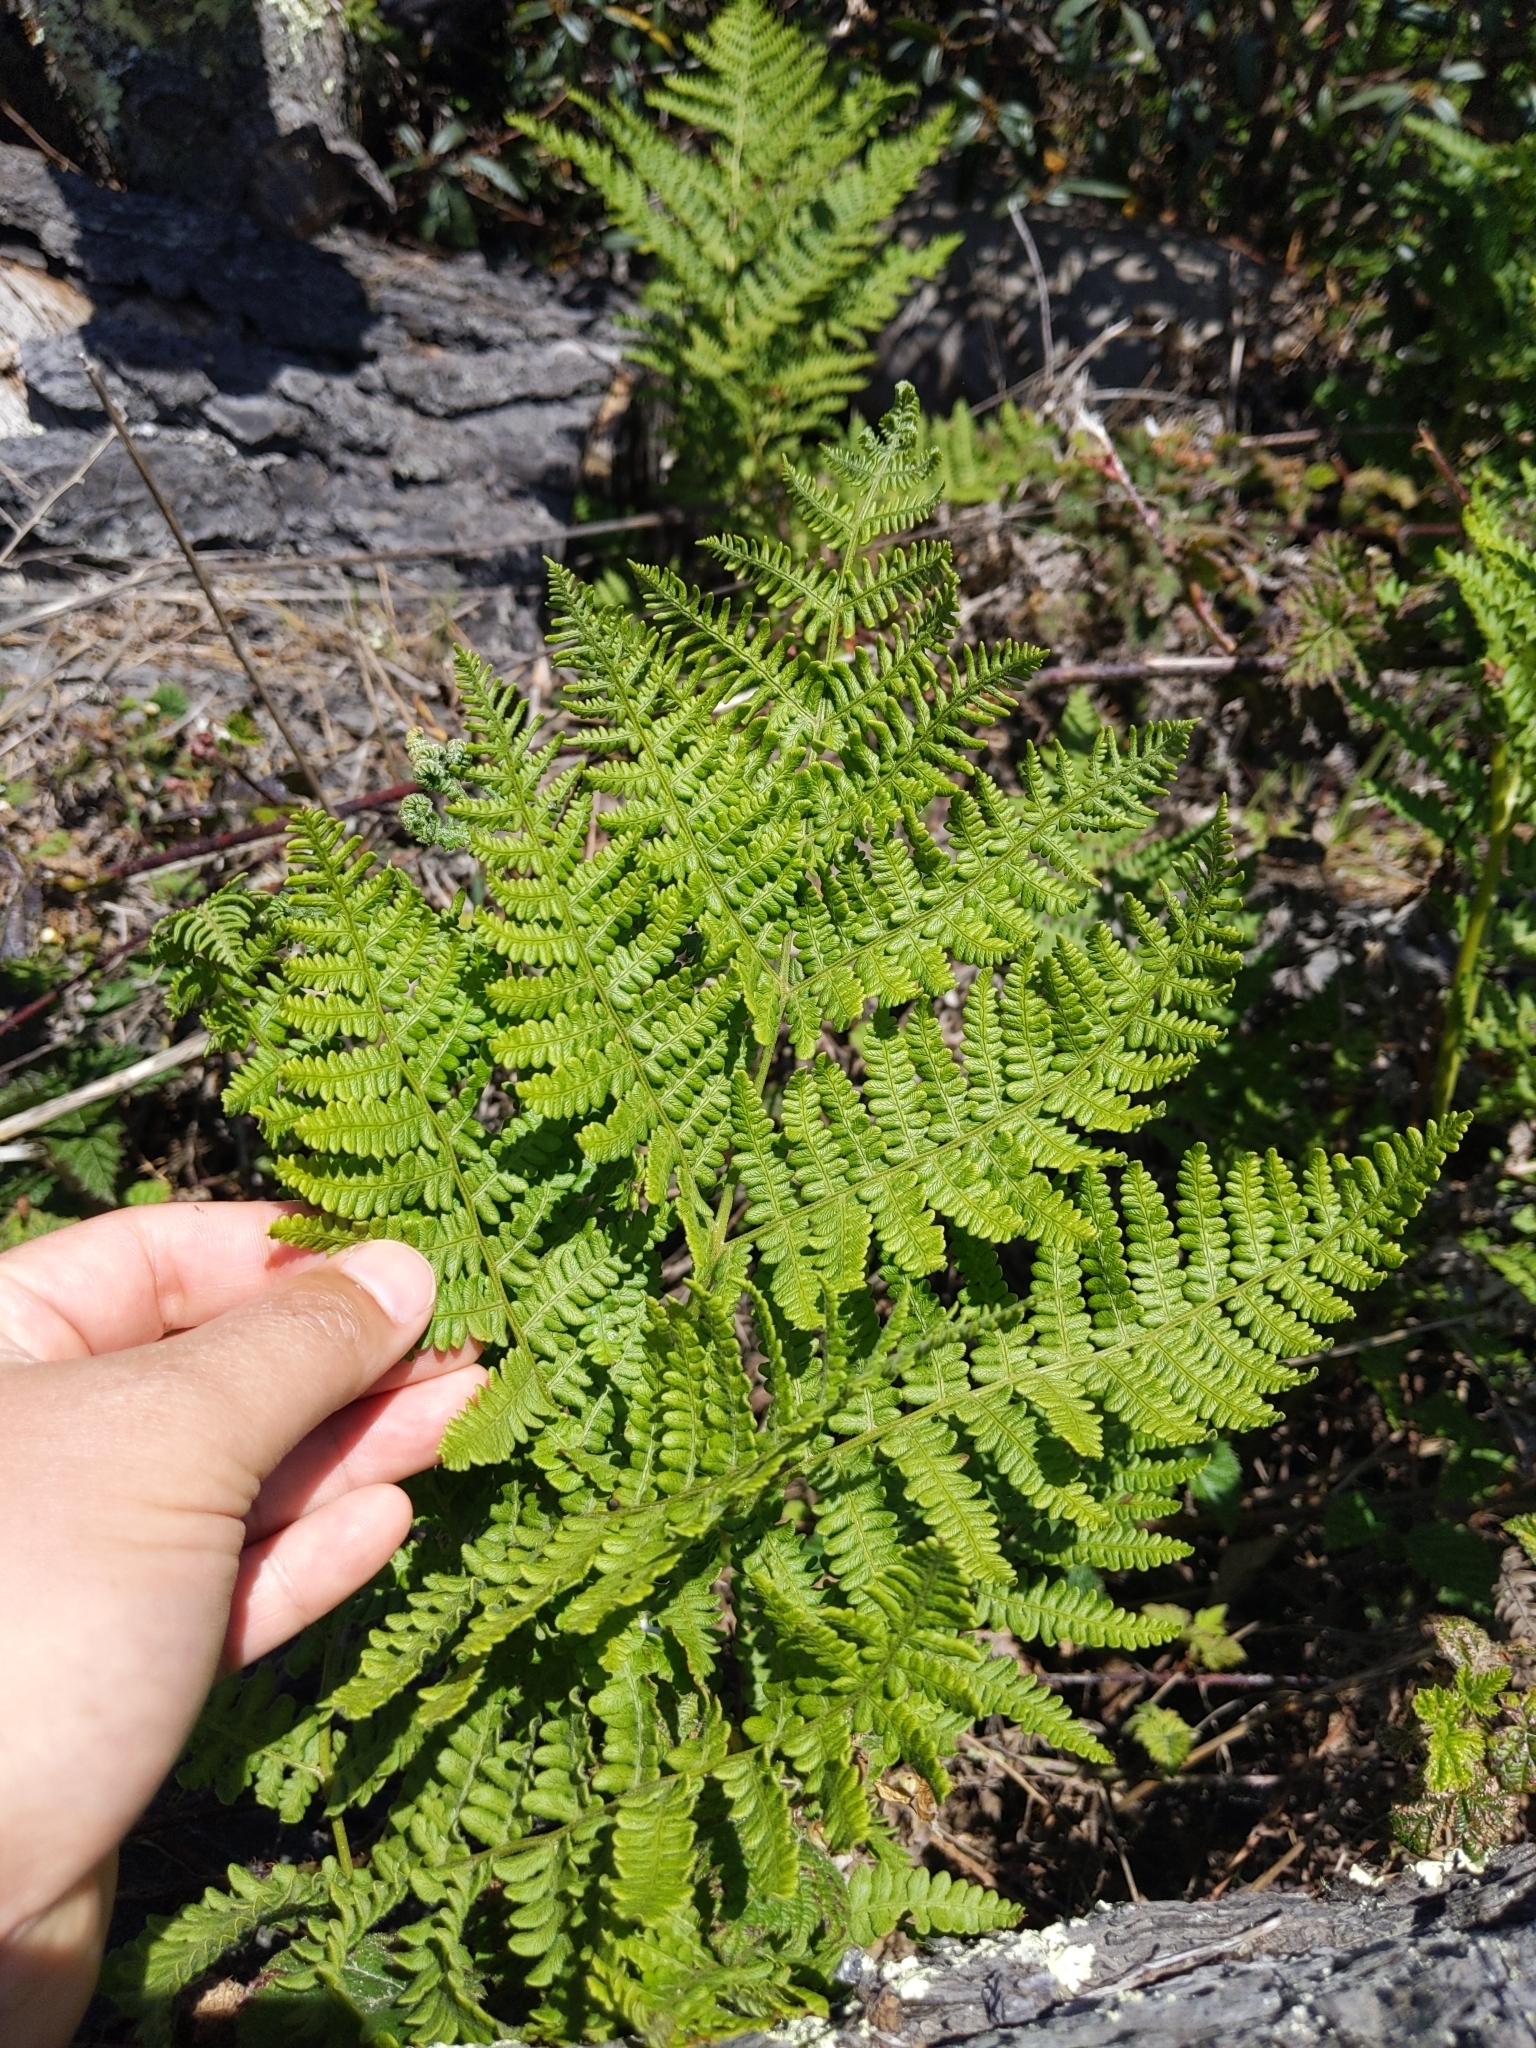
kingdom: Plantae
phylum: Tracheophyta
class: Polypodiopsida
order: Polypodiales
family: Dennstaedtiaceae
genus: Pteridium
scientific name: Pteridium aquilinum
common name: Bracken
